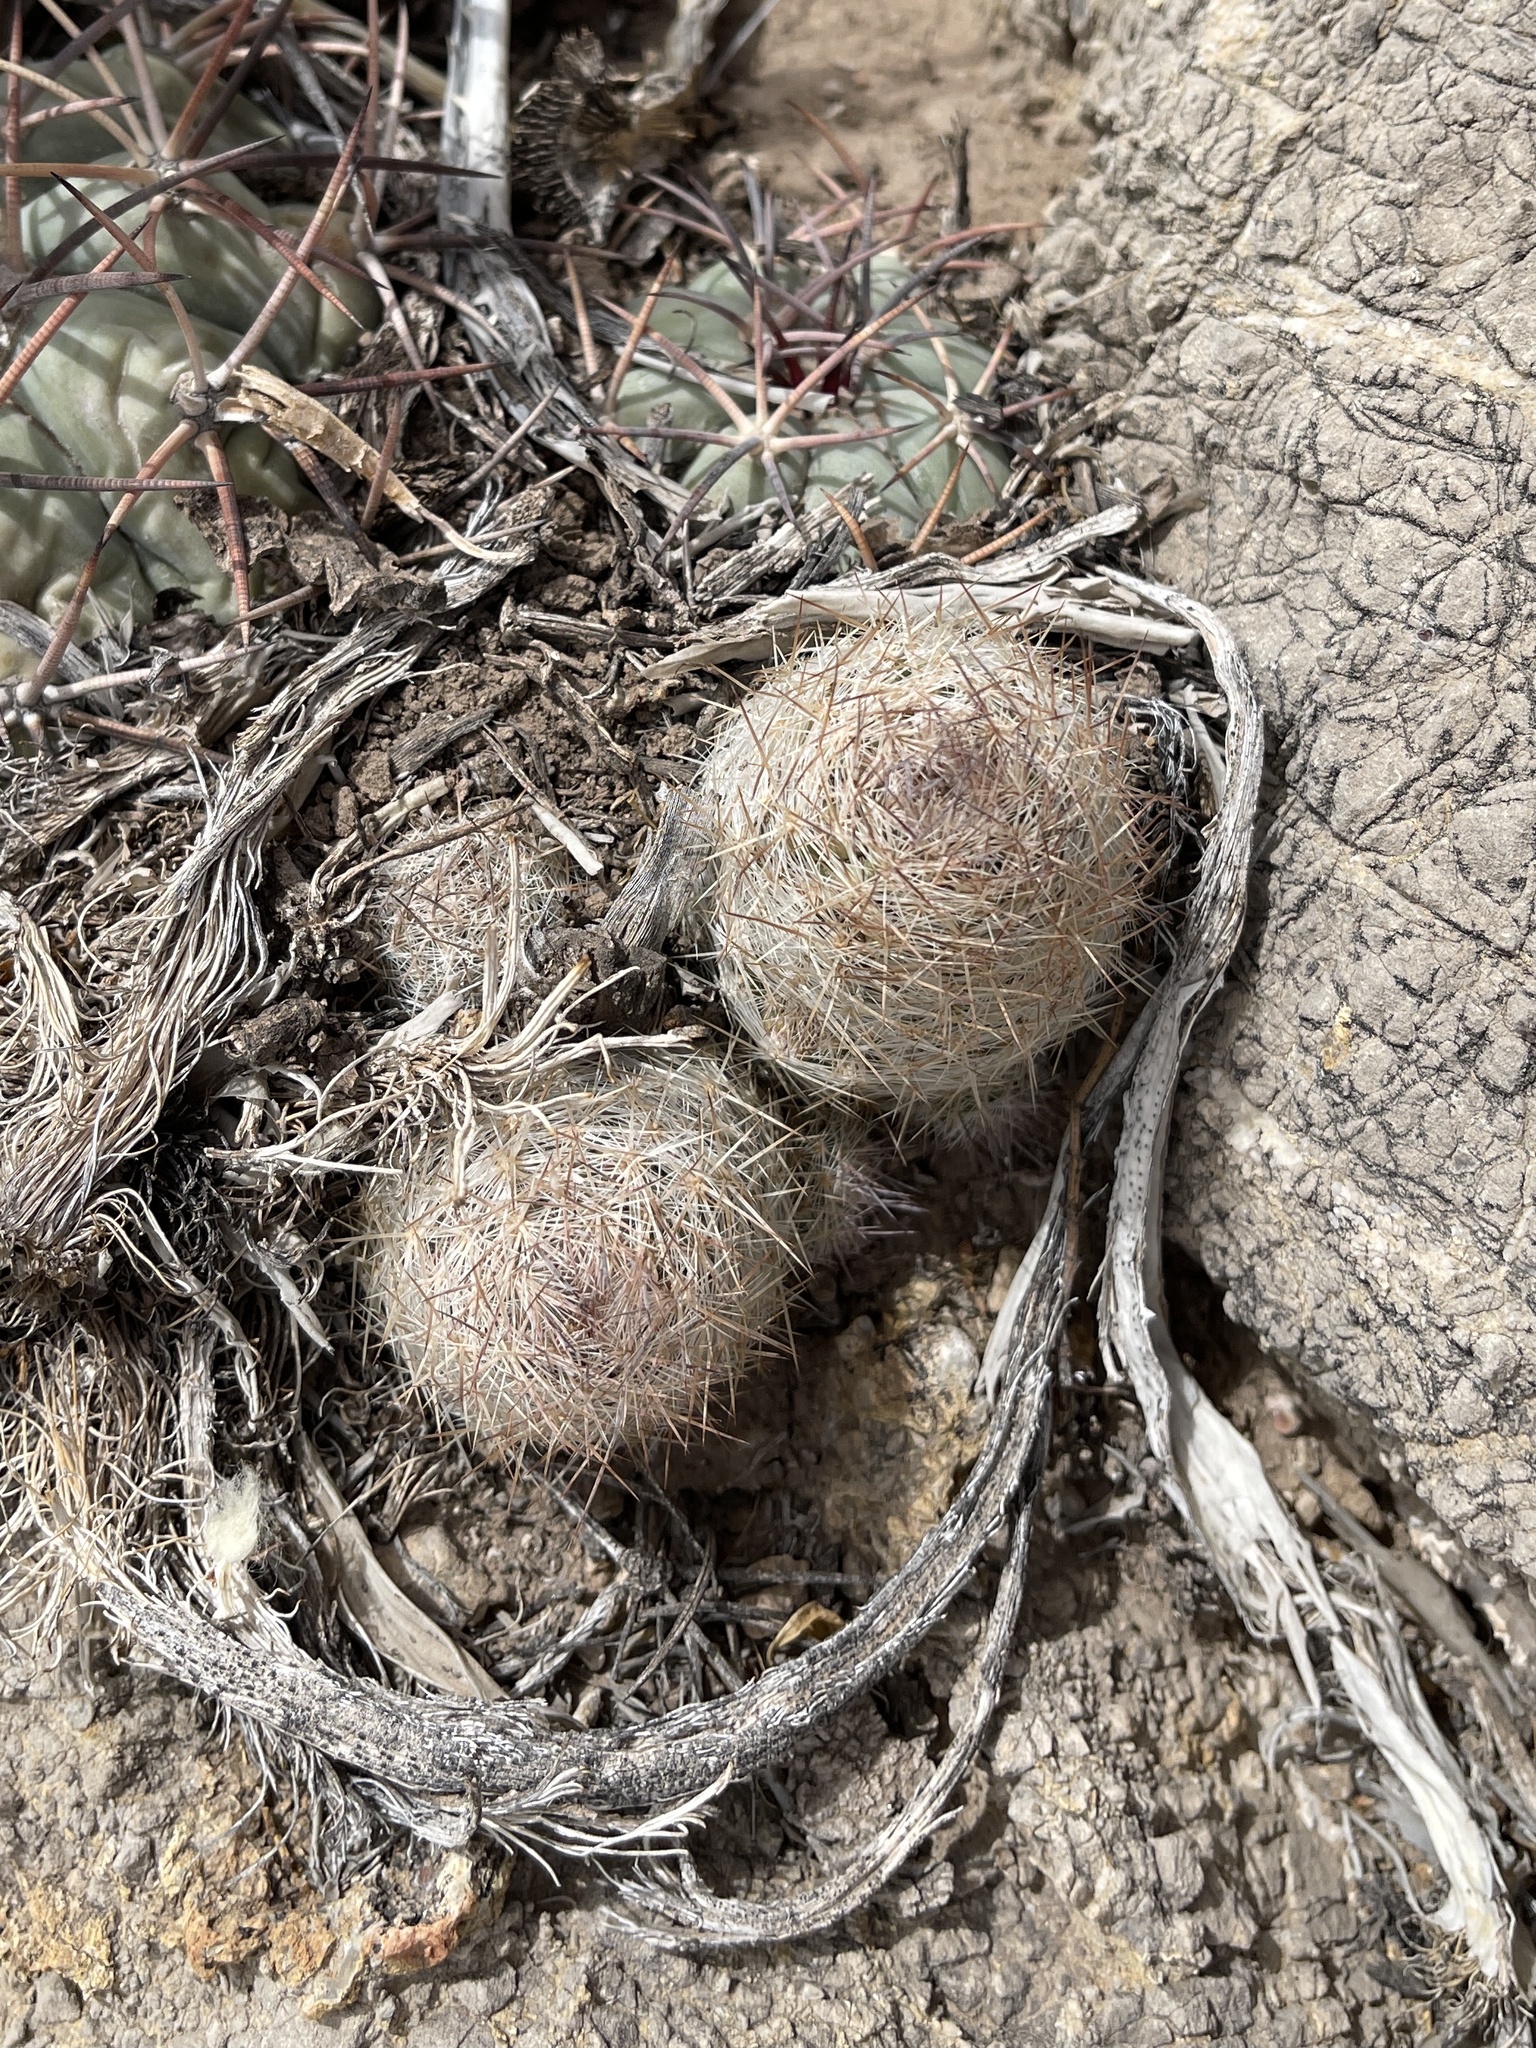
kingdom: Plantae
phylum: Tracheophyta
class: Magnoliopsida
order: Caryophyllales
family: Cactaceae
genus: Pelecyphora
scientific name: Pelecyphora tuberculosa
